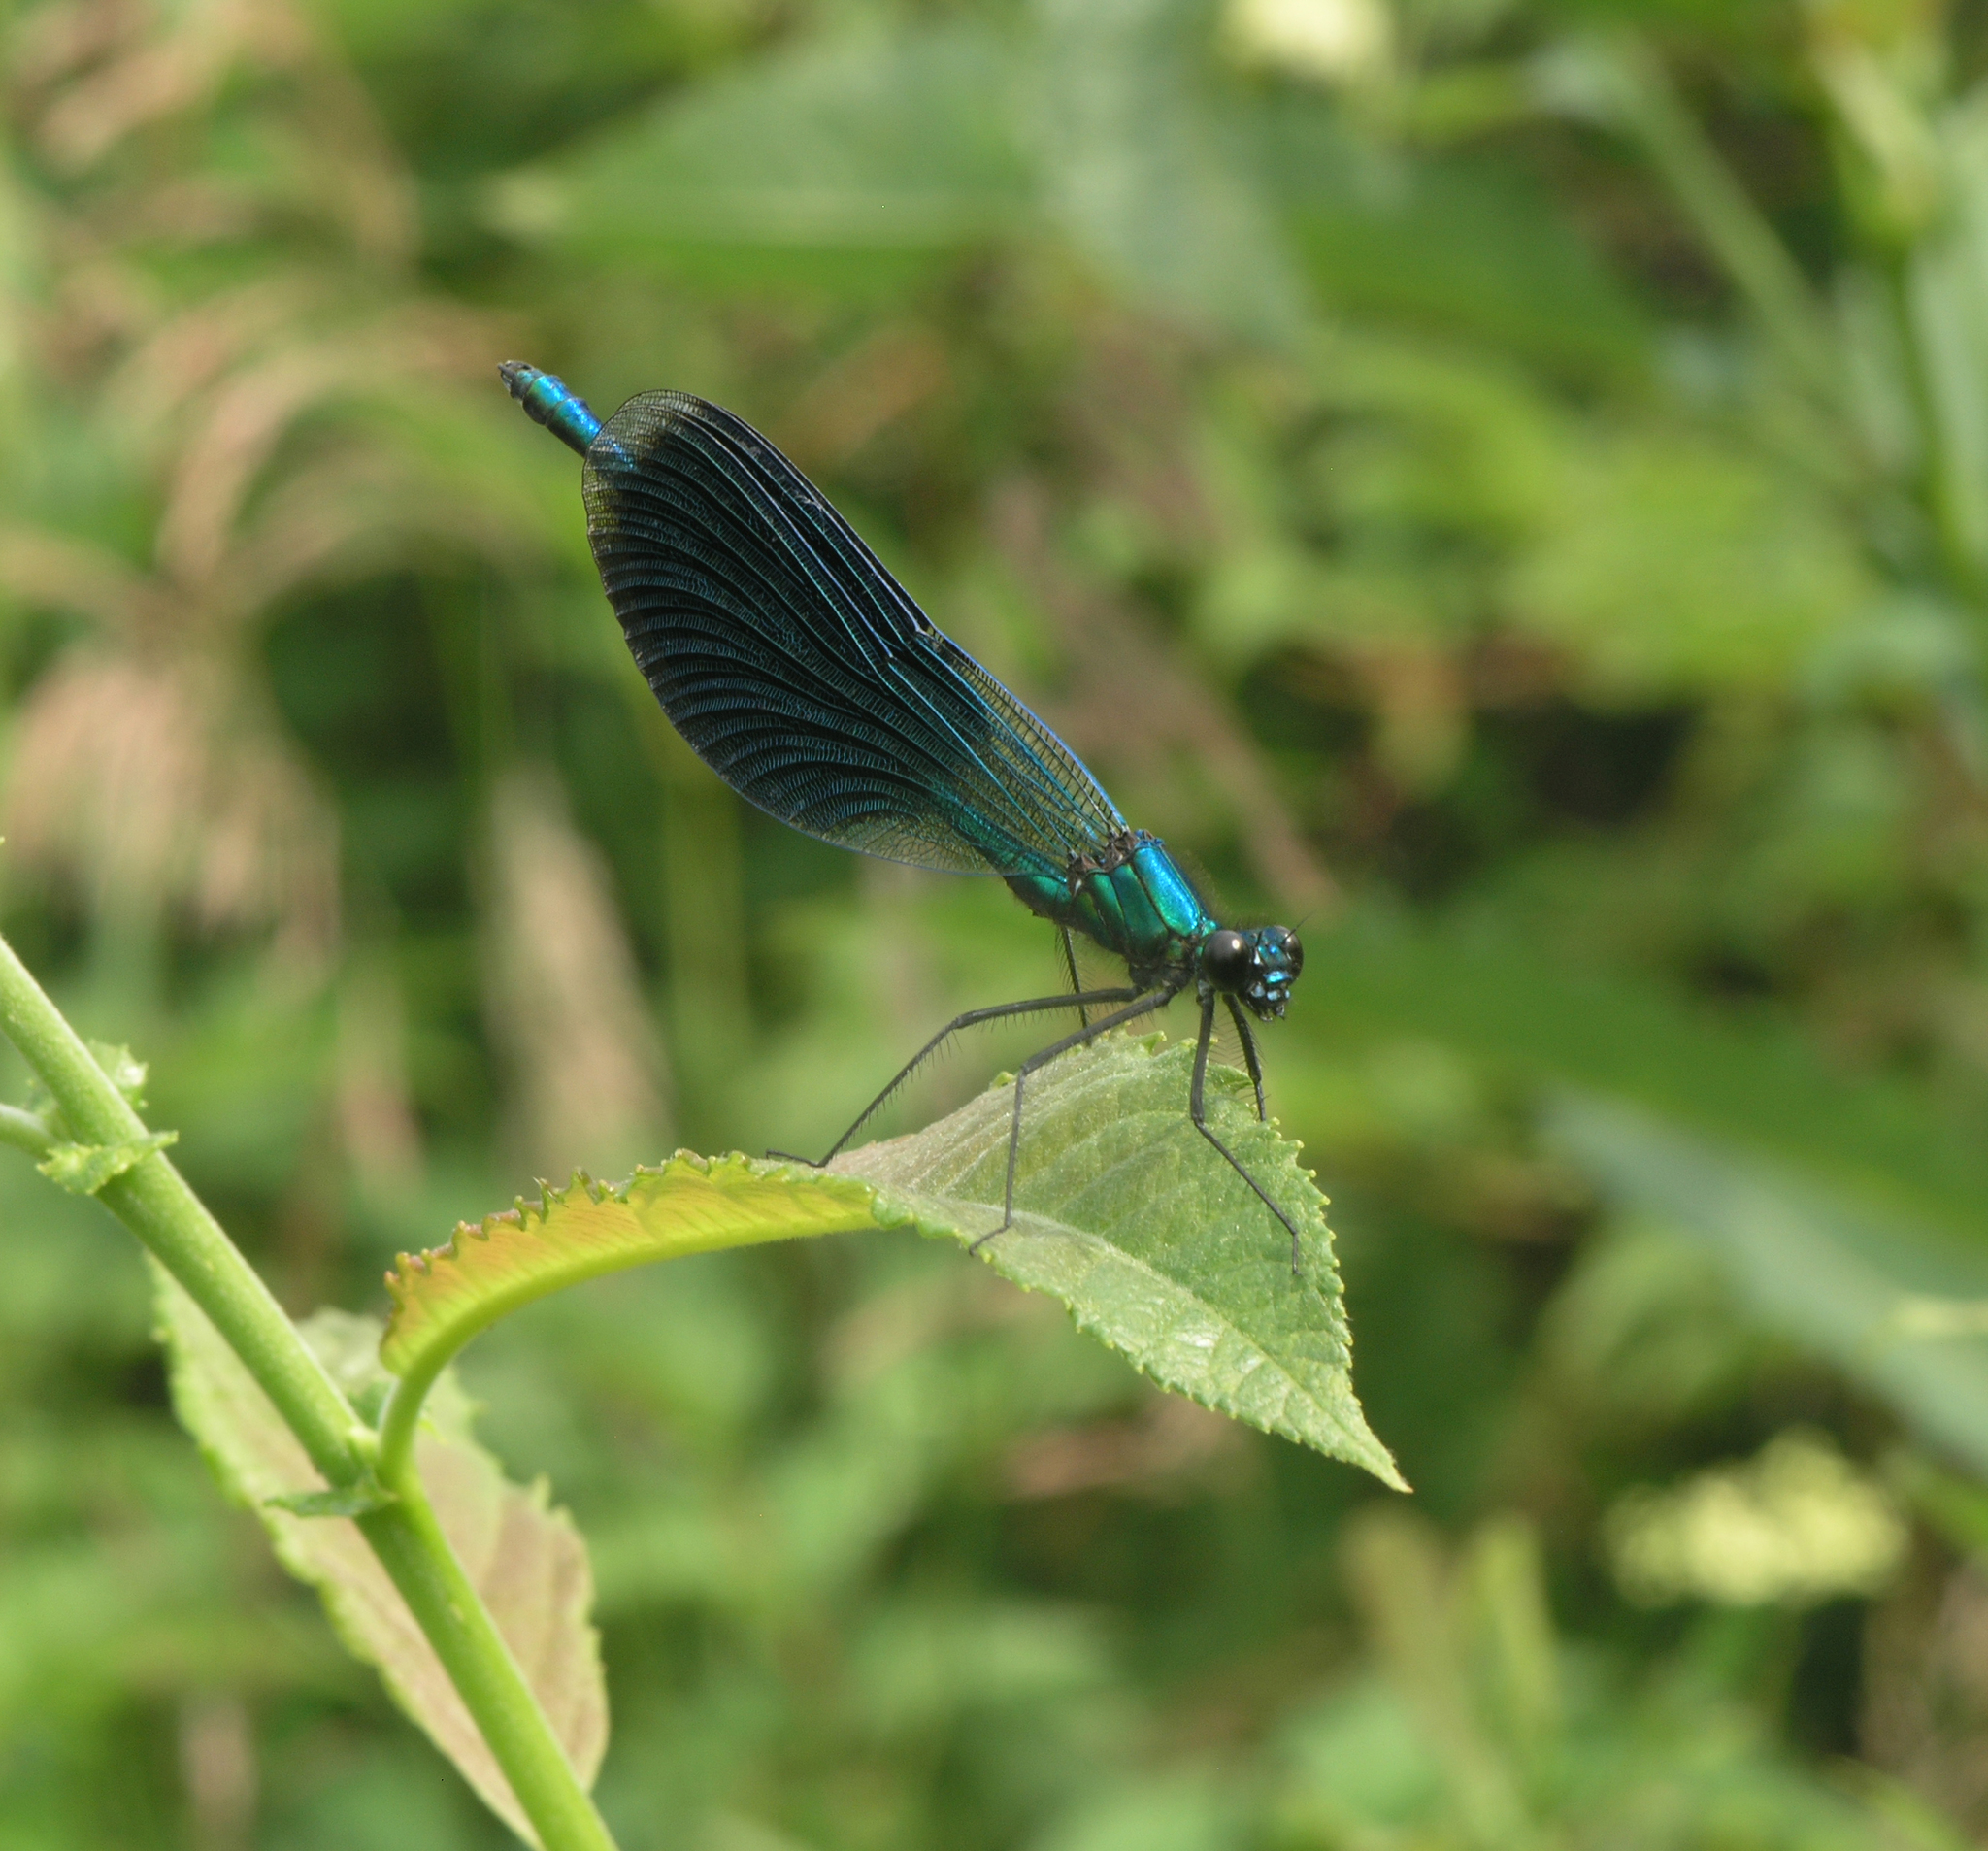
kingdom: Animalia
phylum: Arthropoda
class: Insecta
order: Odonata
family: Calopterygidae
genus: Calopteryx
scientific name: Calopteryx splendens
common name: Banded demoiselle
